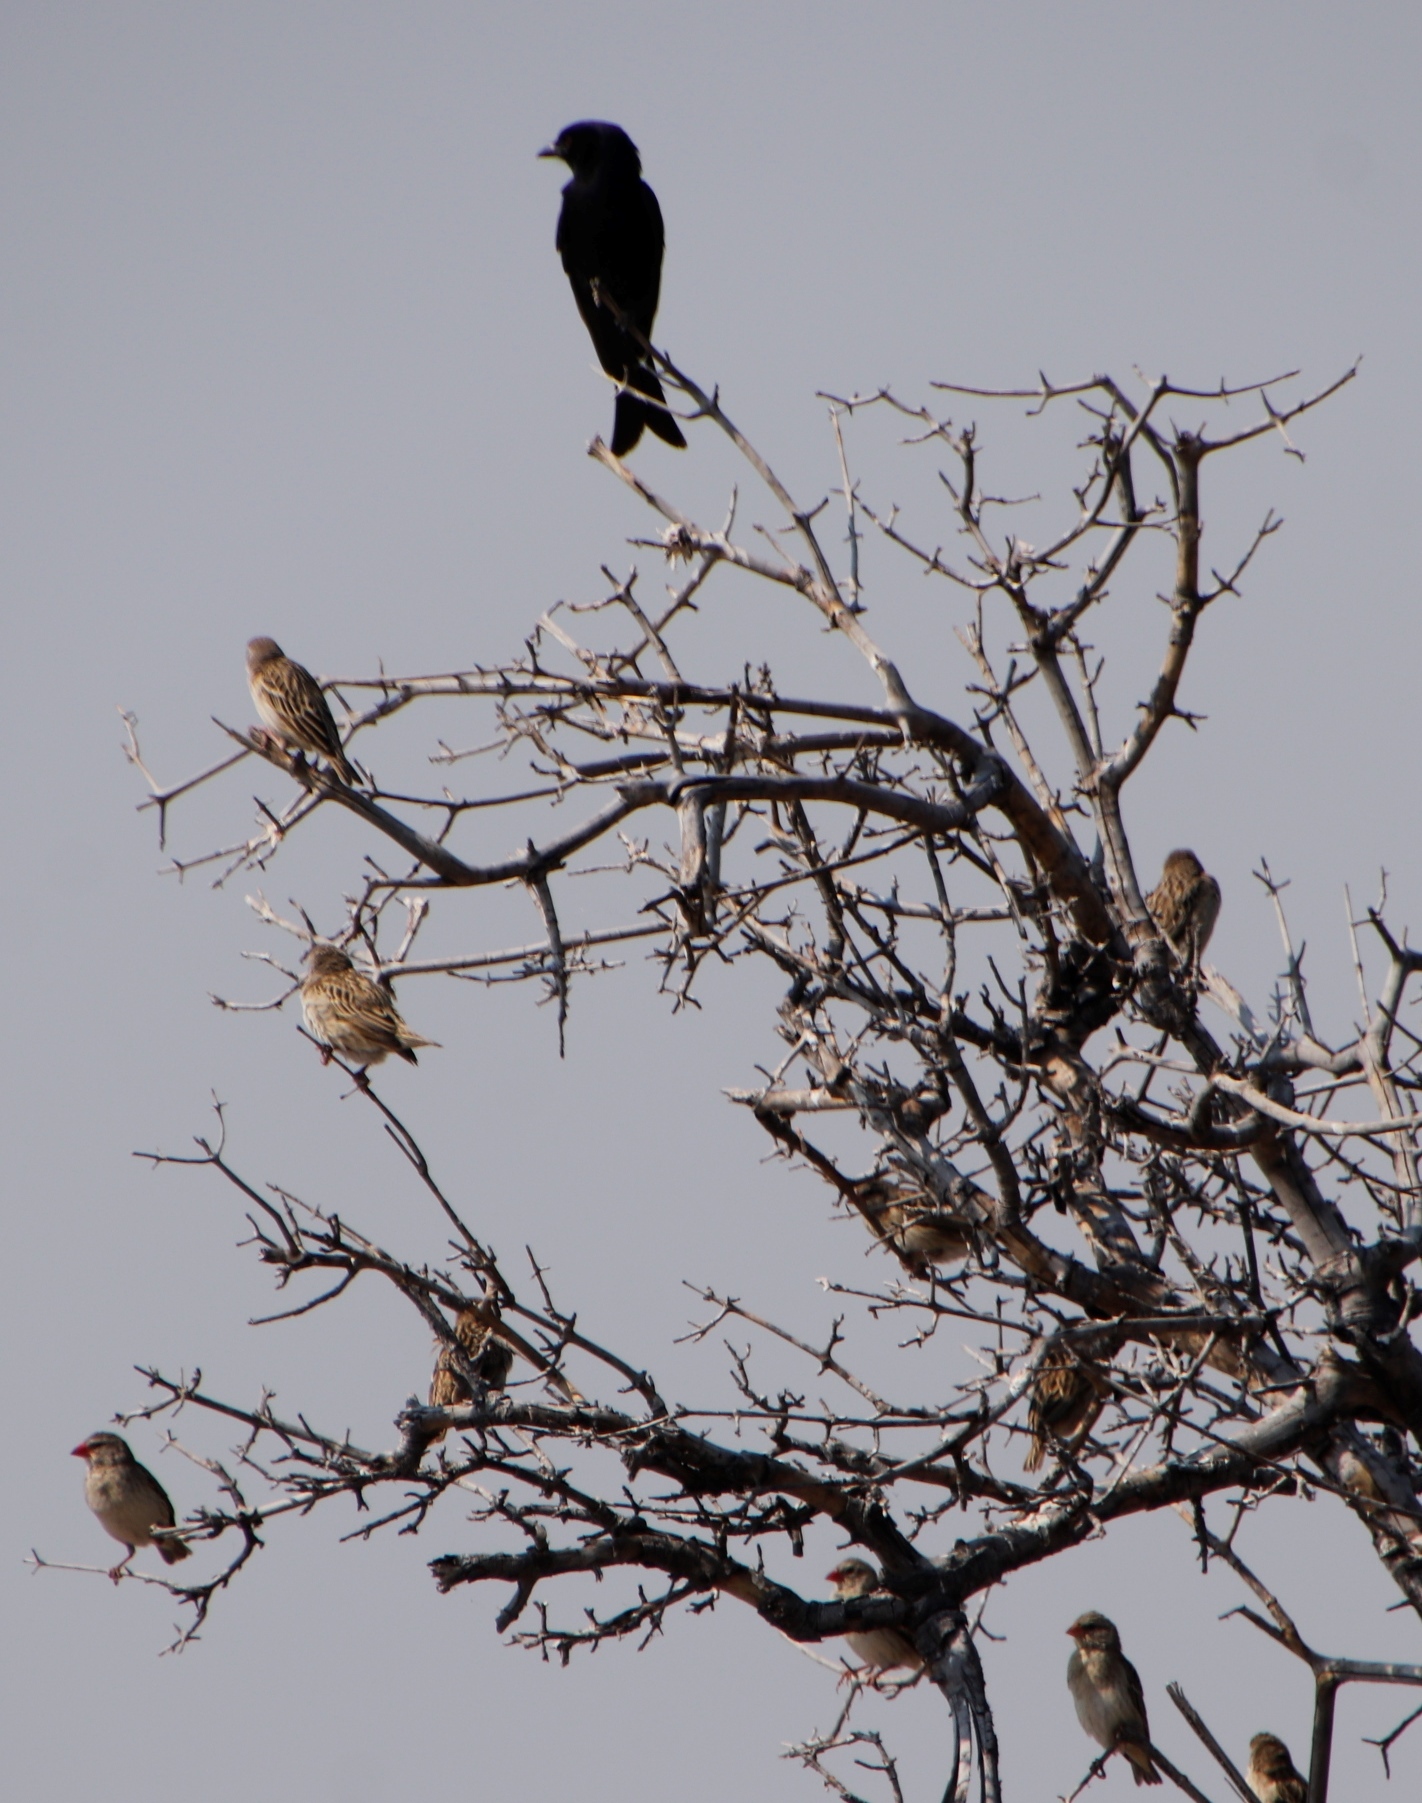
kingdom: Animalia
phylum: Chordata
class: Aves
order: Passeriformes
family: Dicruridae
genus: Dicrurus
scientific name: Dicrurus adsimilis
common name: Fork-tailed drongo
